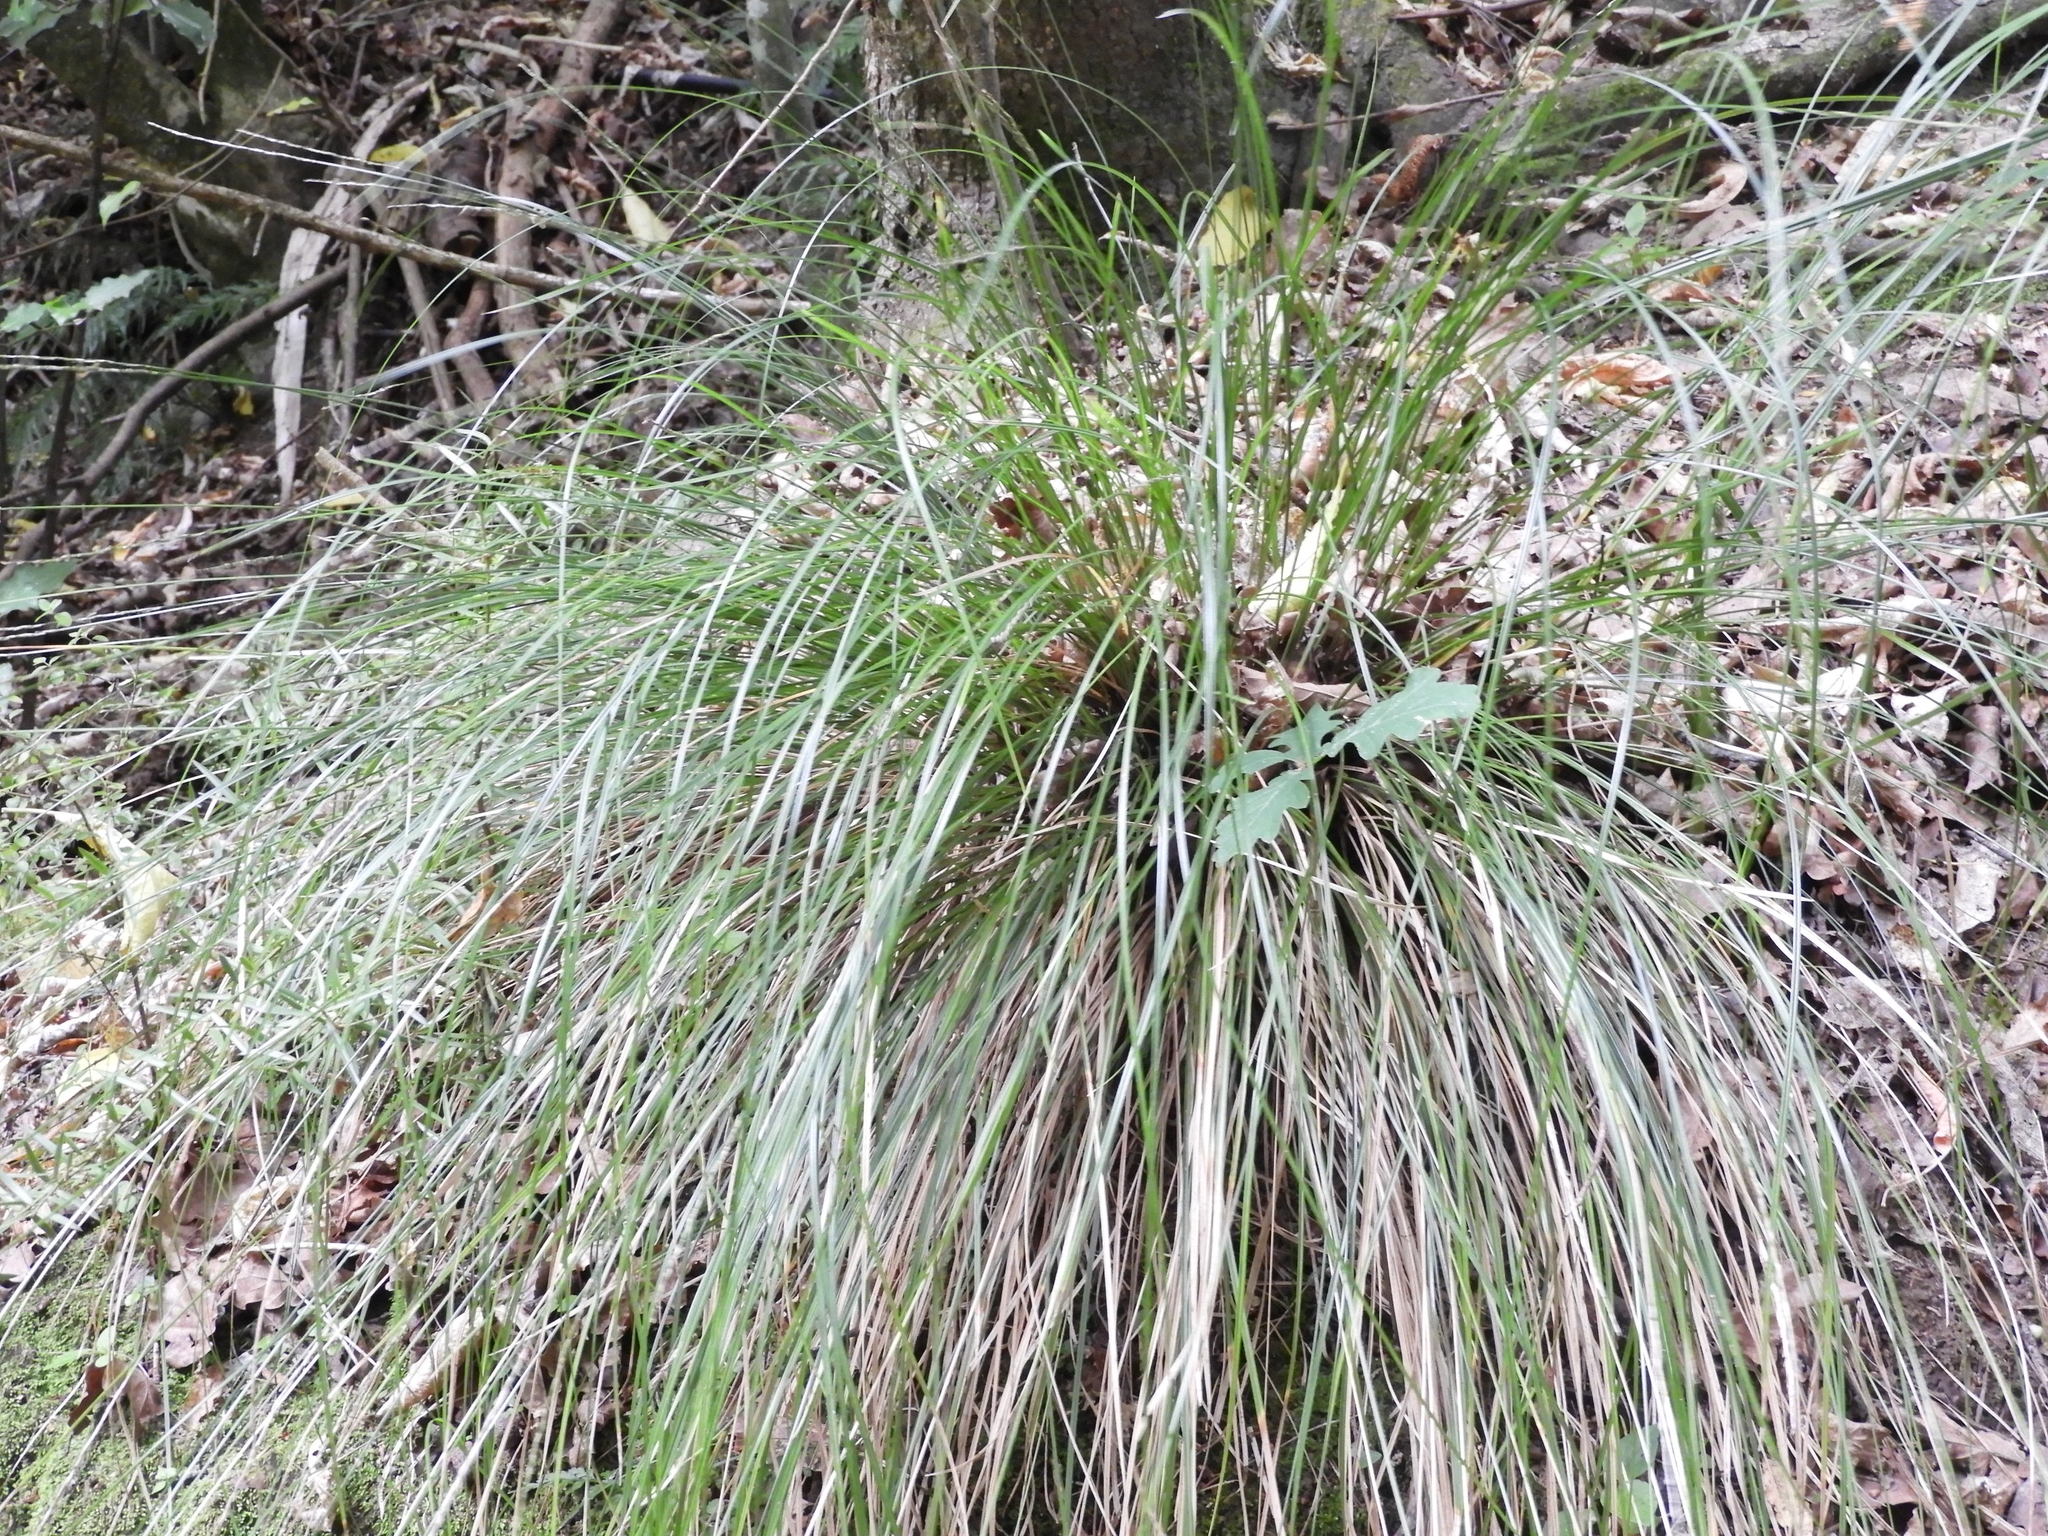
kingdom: Plantae
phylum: Tracheophyta
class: Liliopsida
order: Poales
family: Cyperaceae
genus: Carex
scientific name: Carex cyanea
